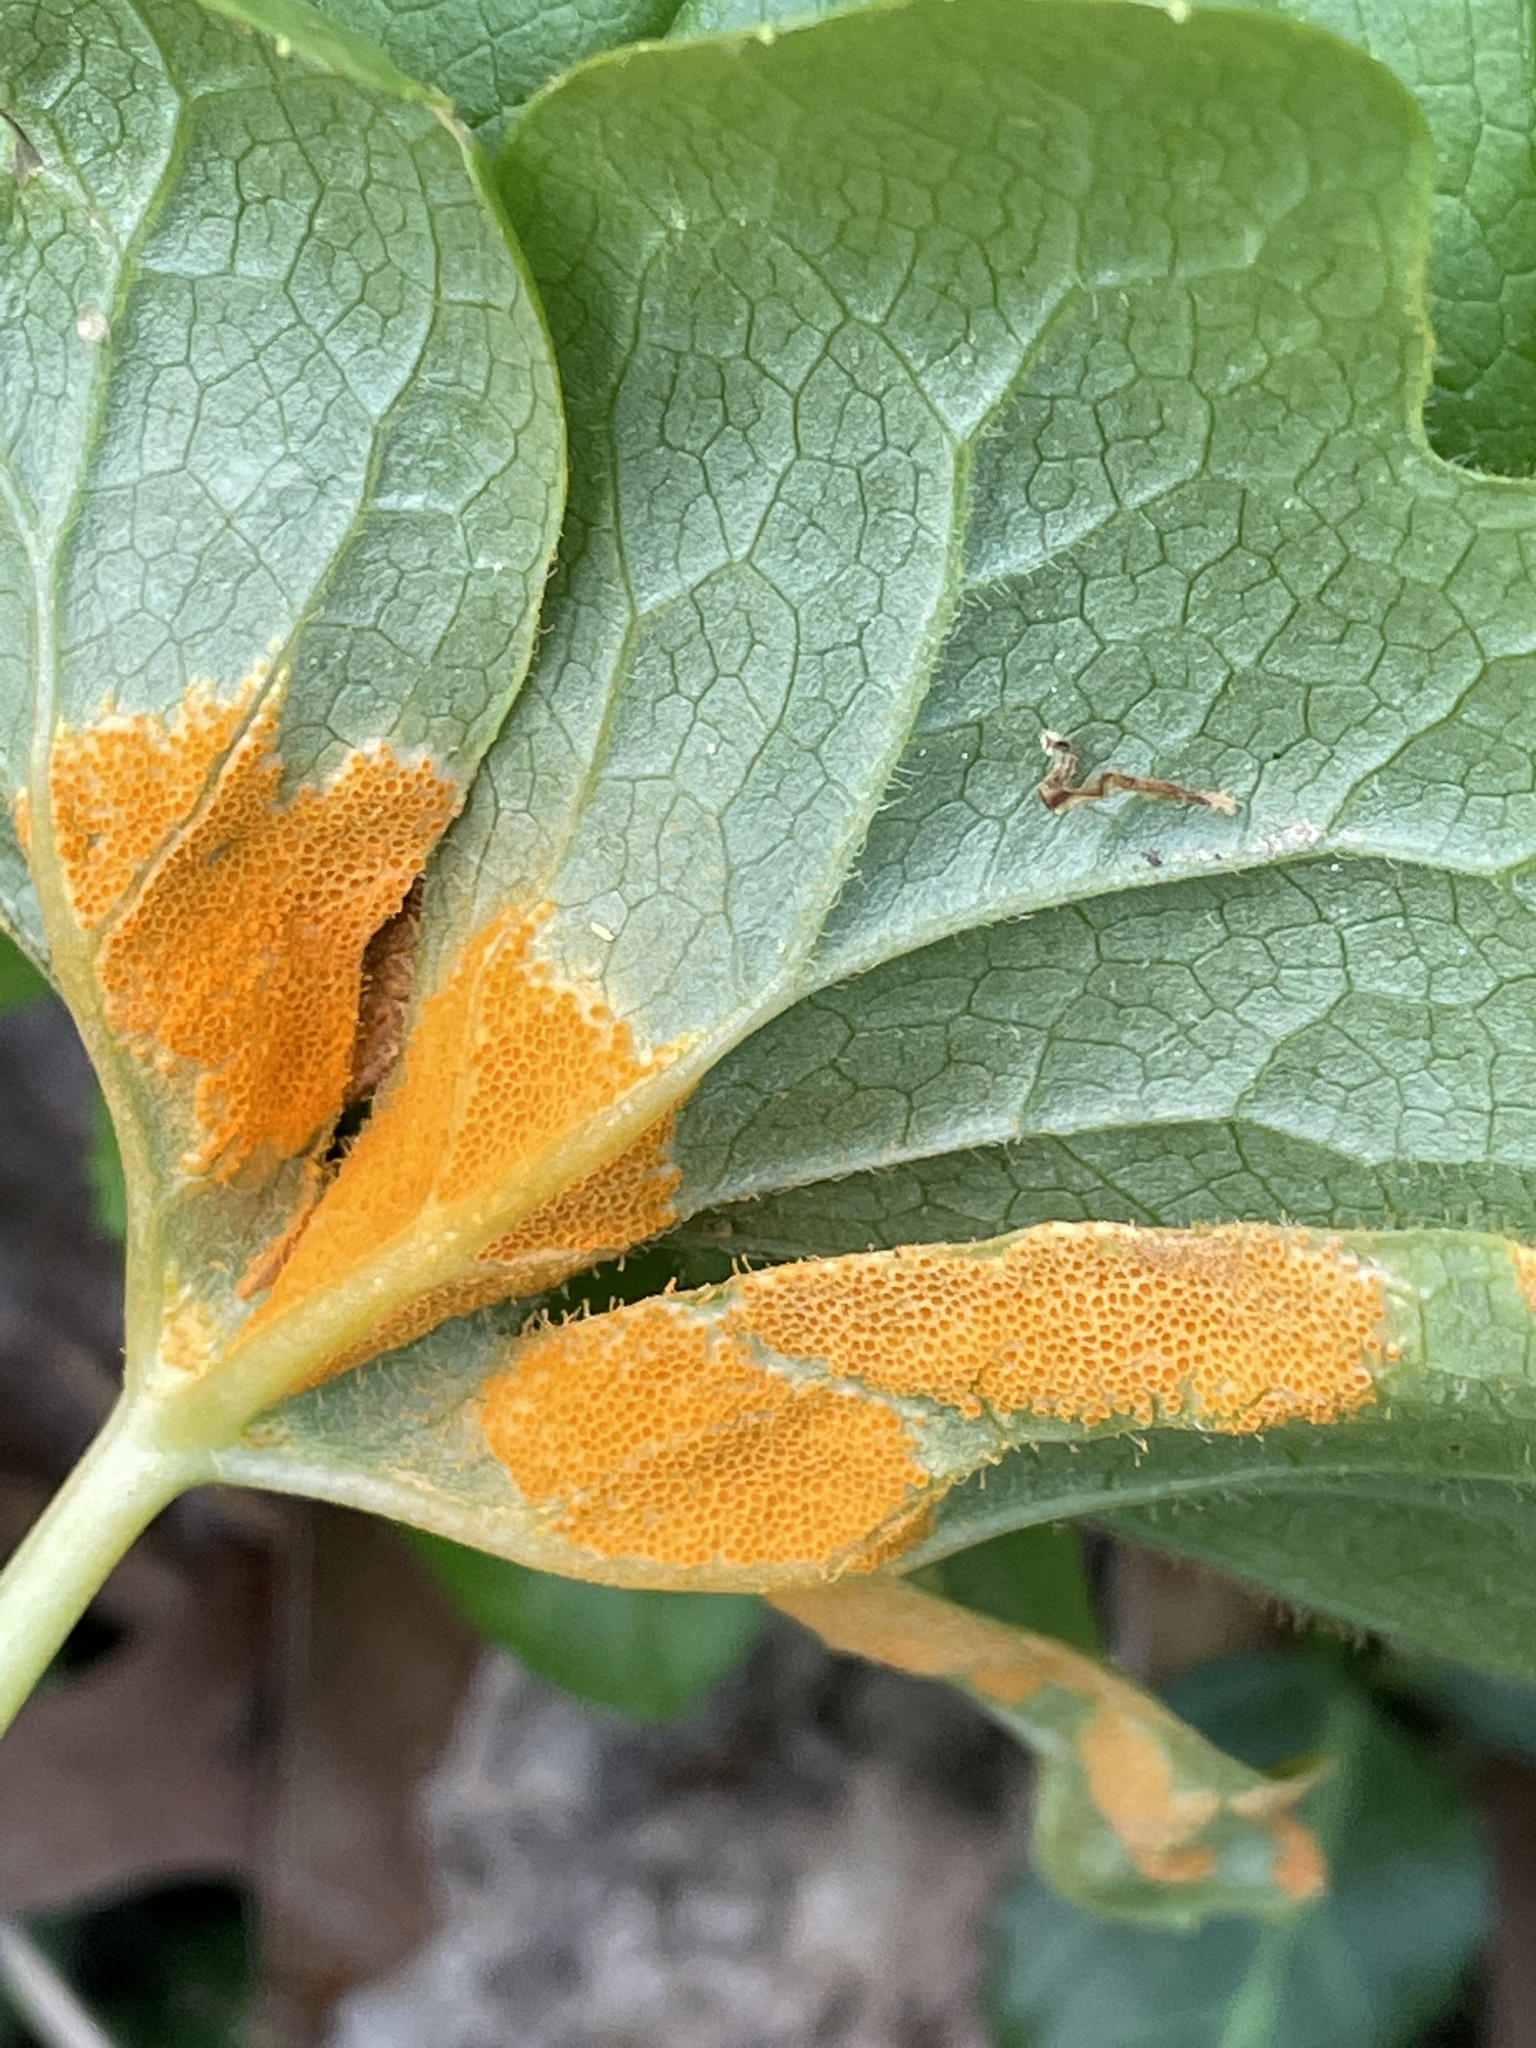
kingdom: Fungi
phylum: Basidiomycota
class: Pucciniomycetes
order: Pucciniales
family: Pucciniaceae
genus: Puccinia
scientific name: Puccinia podophylli
